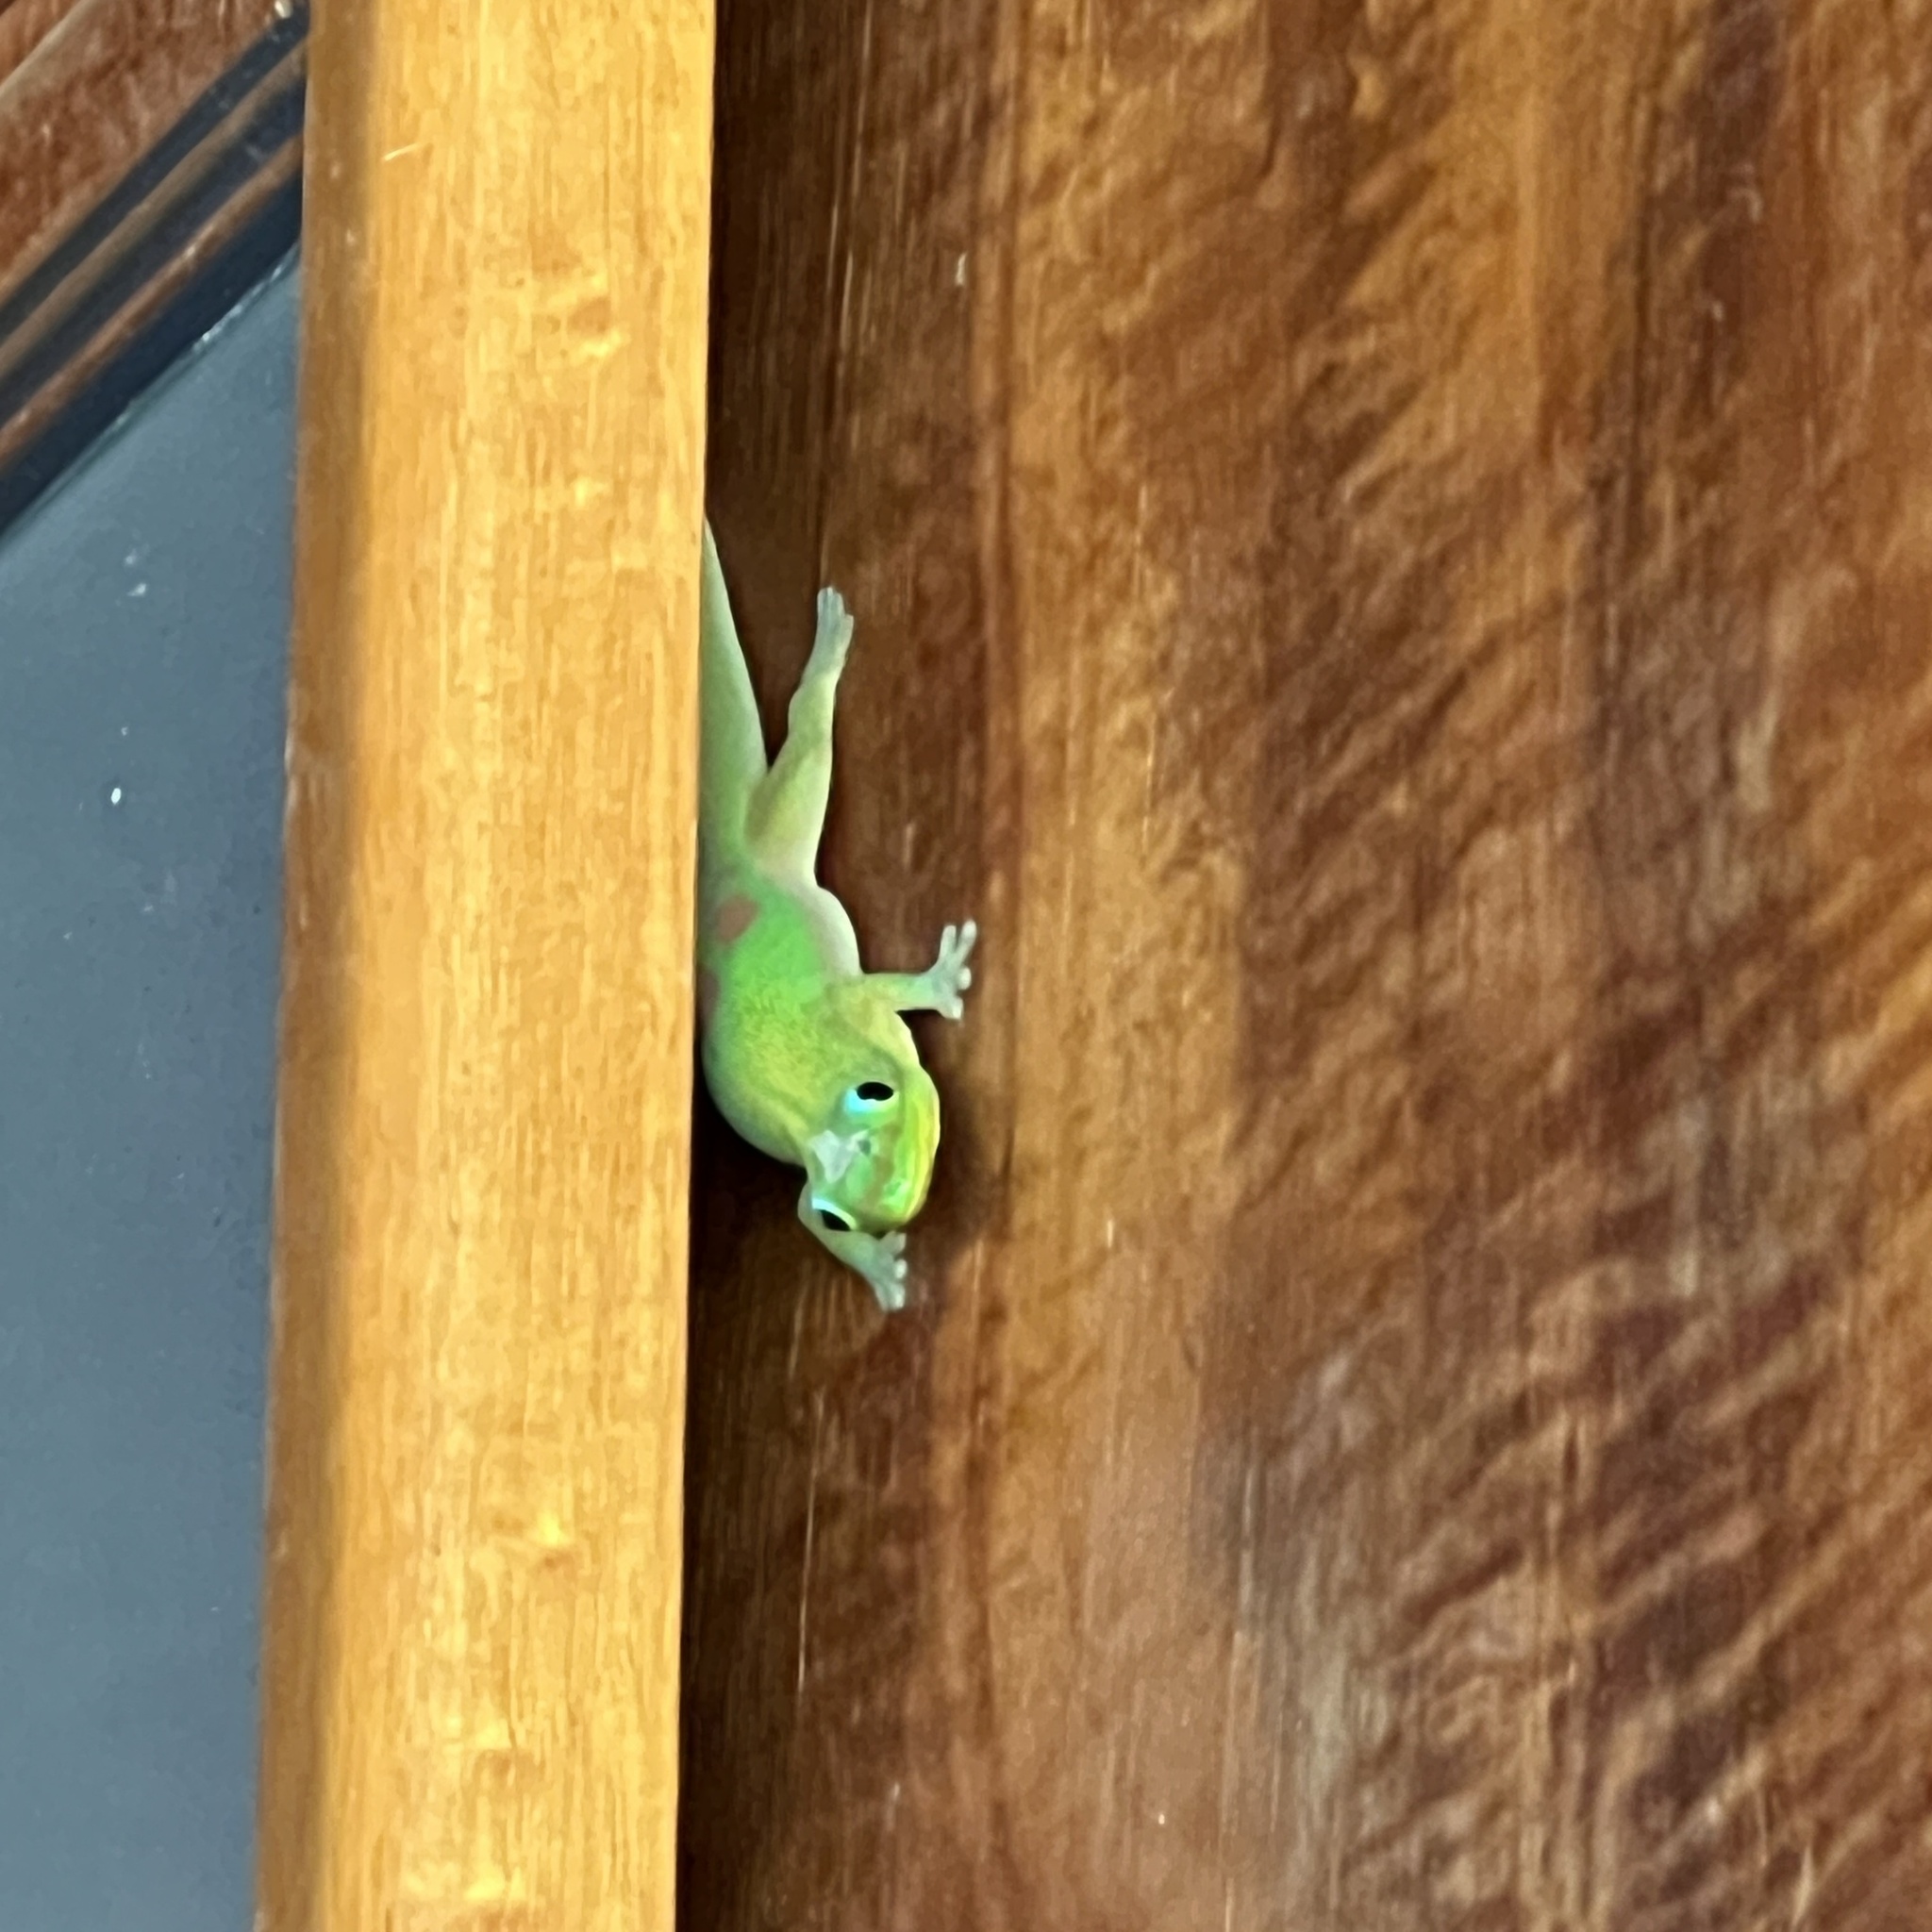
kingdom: Animalia
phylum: Chordata
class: Squamata
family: Gekkonidae
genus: Phelsuma
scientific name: Phelsuma laticauda
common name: Gold dust day gecko
